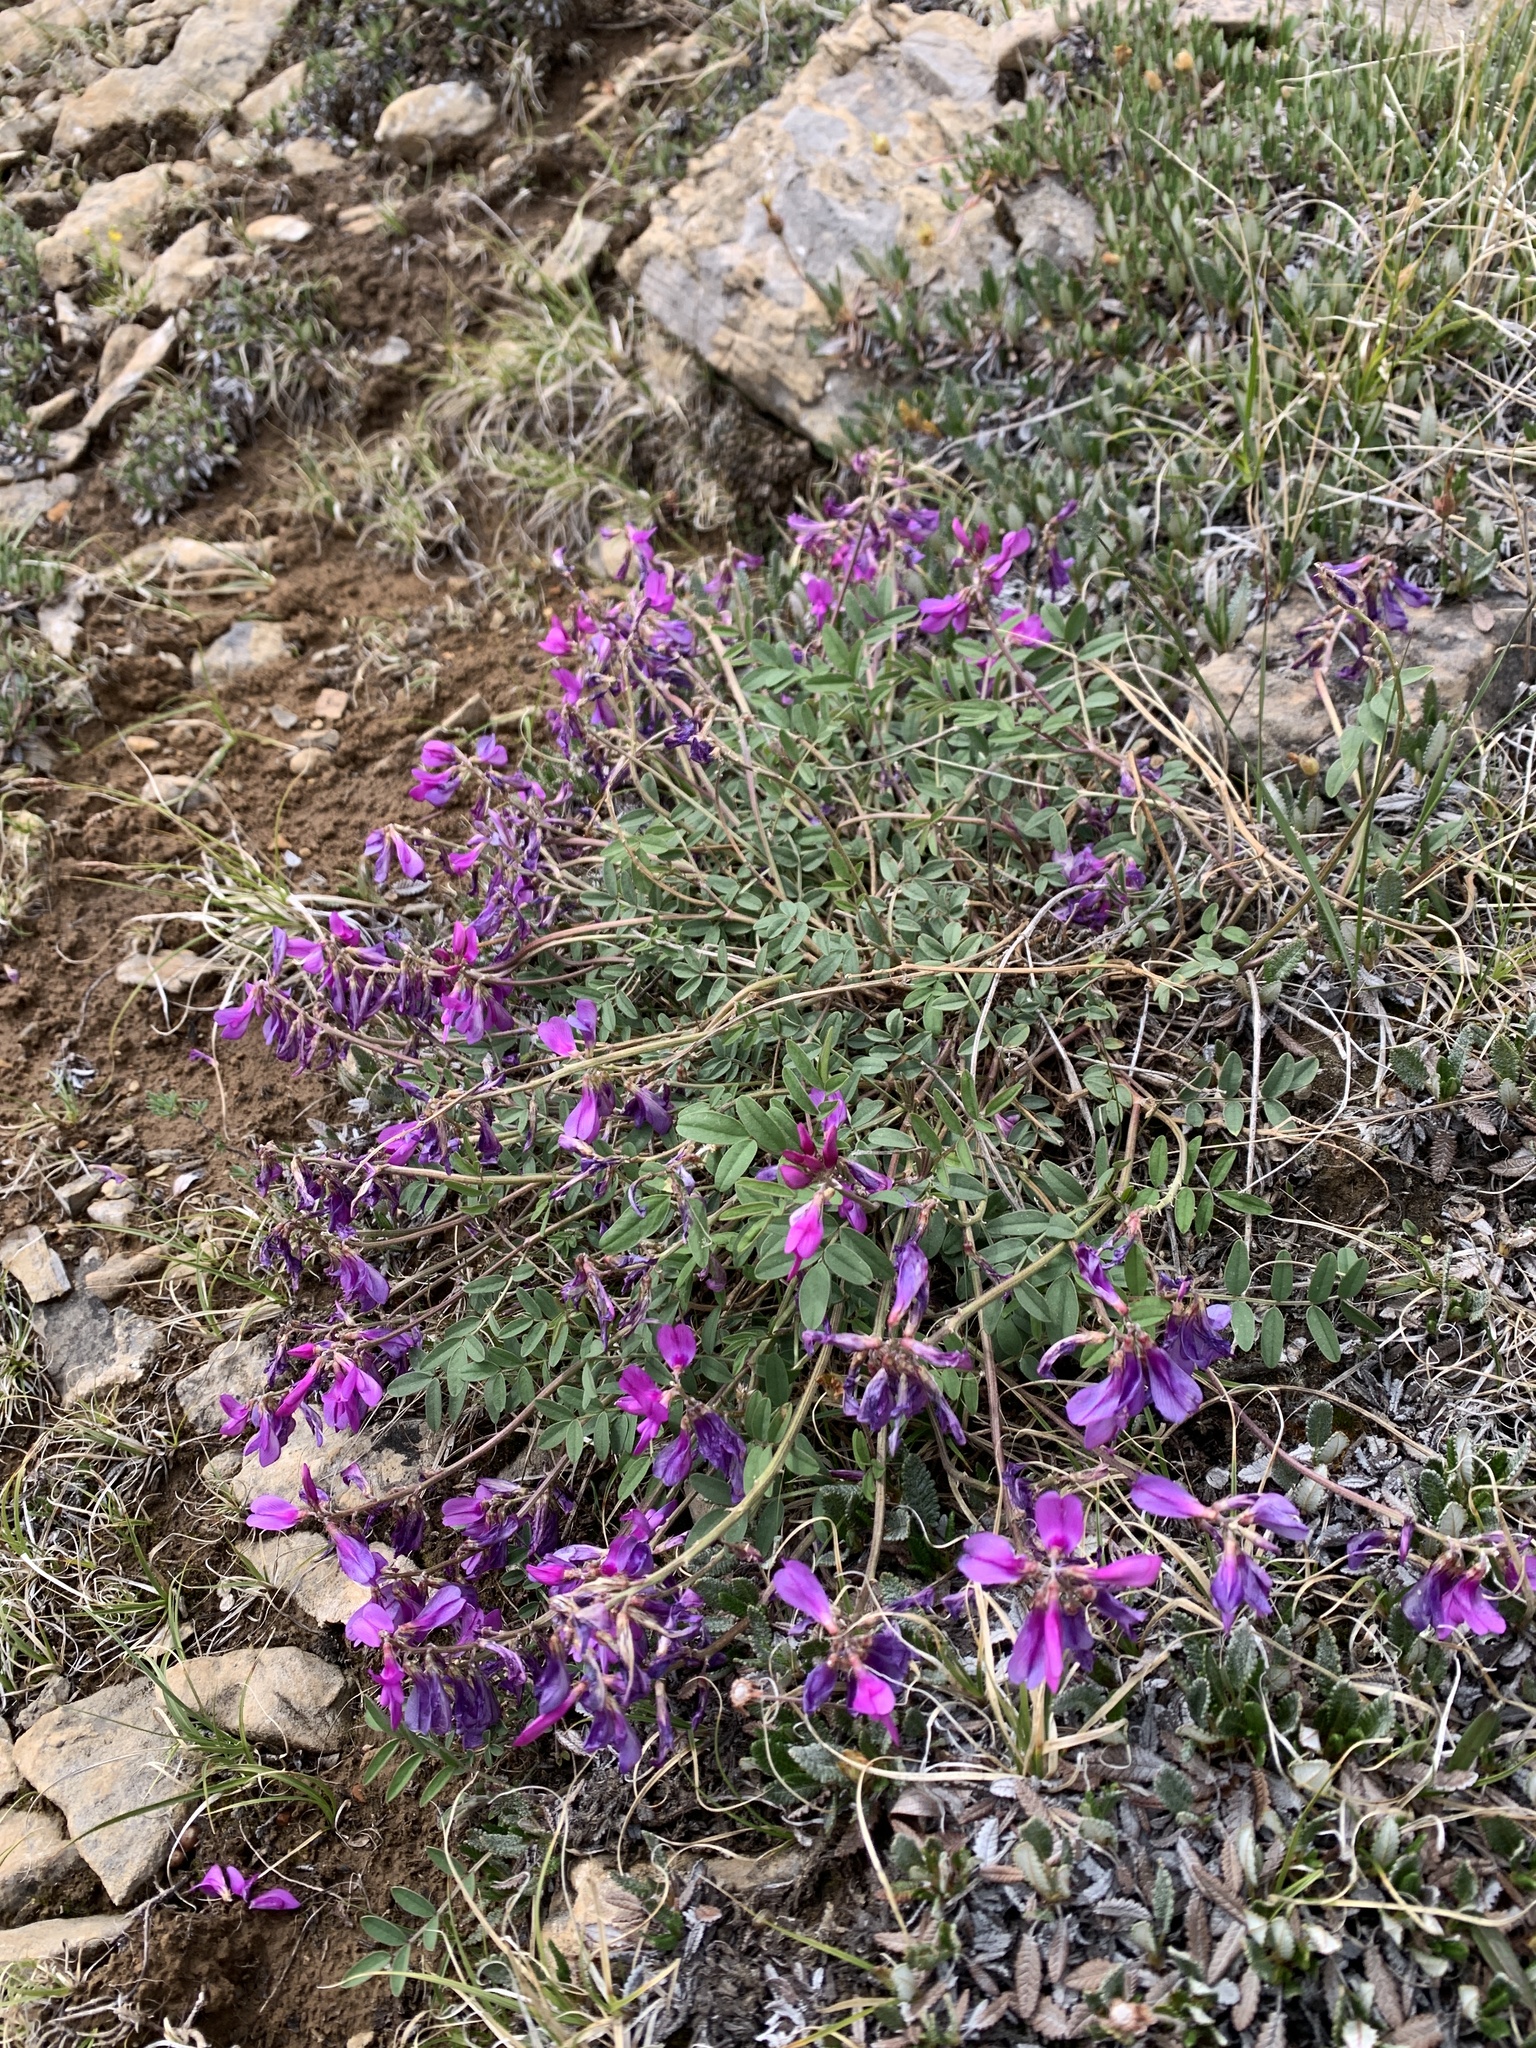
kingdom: Plantae
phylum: Tracheophyta
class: Magnoliopsida
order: Fabales
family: Fabaceae
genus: Hedysarum
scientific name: Hedysarum boreale
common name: Northern sweet-vetch
